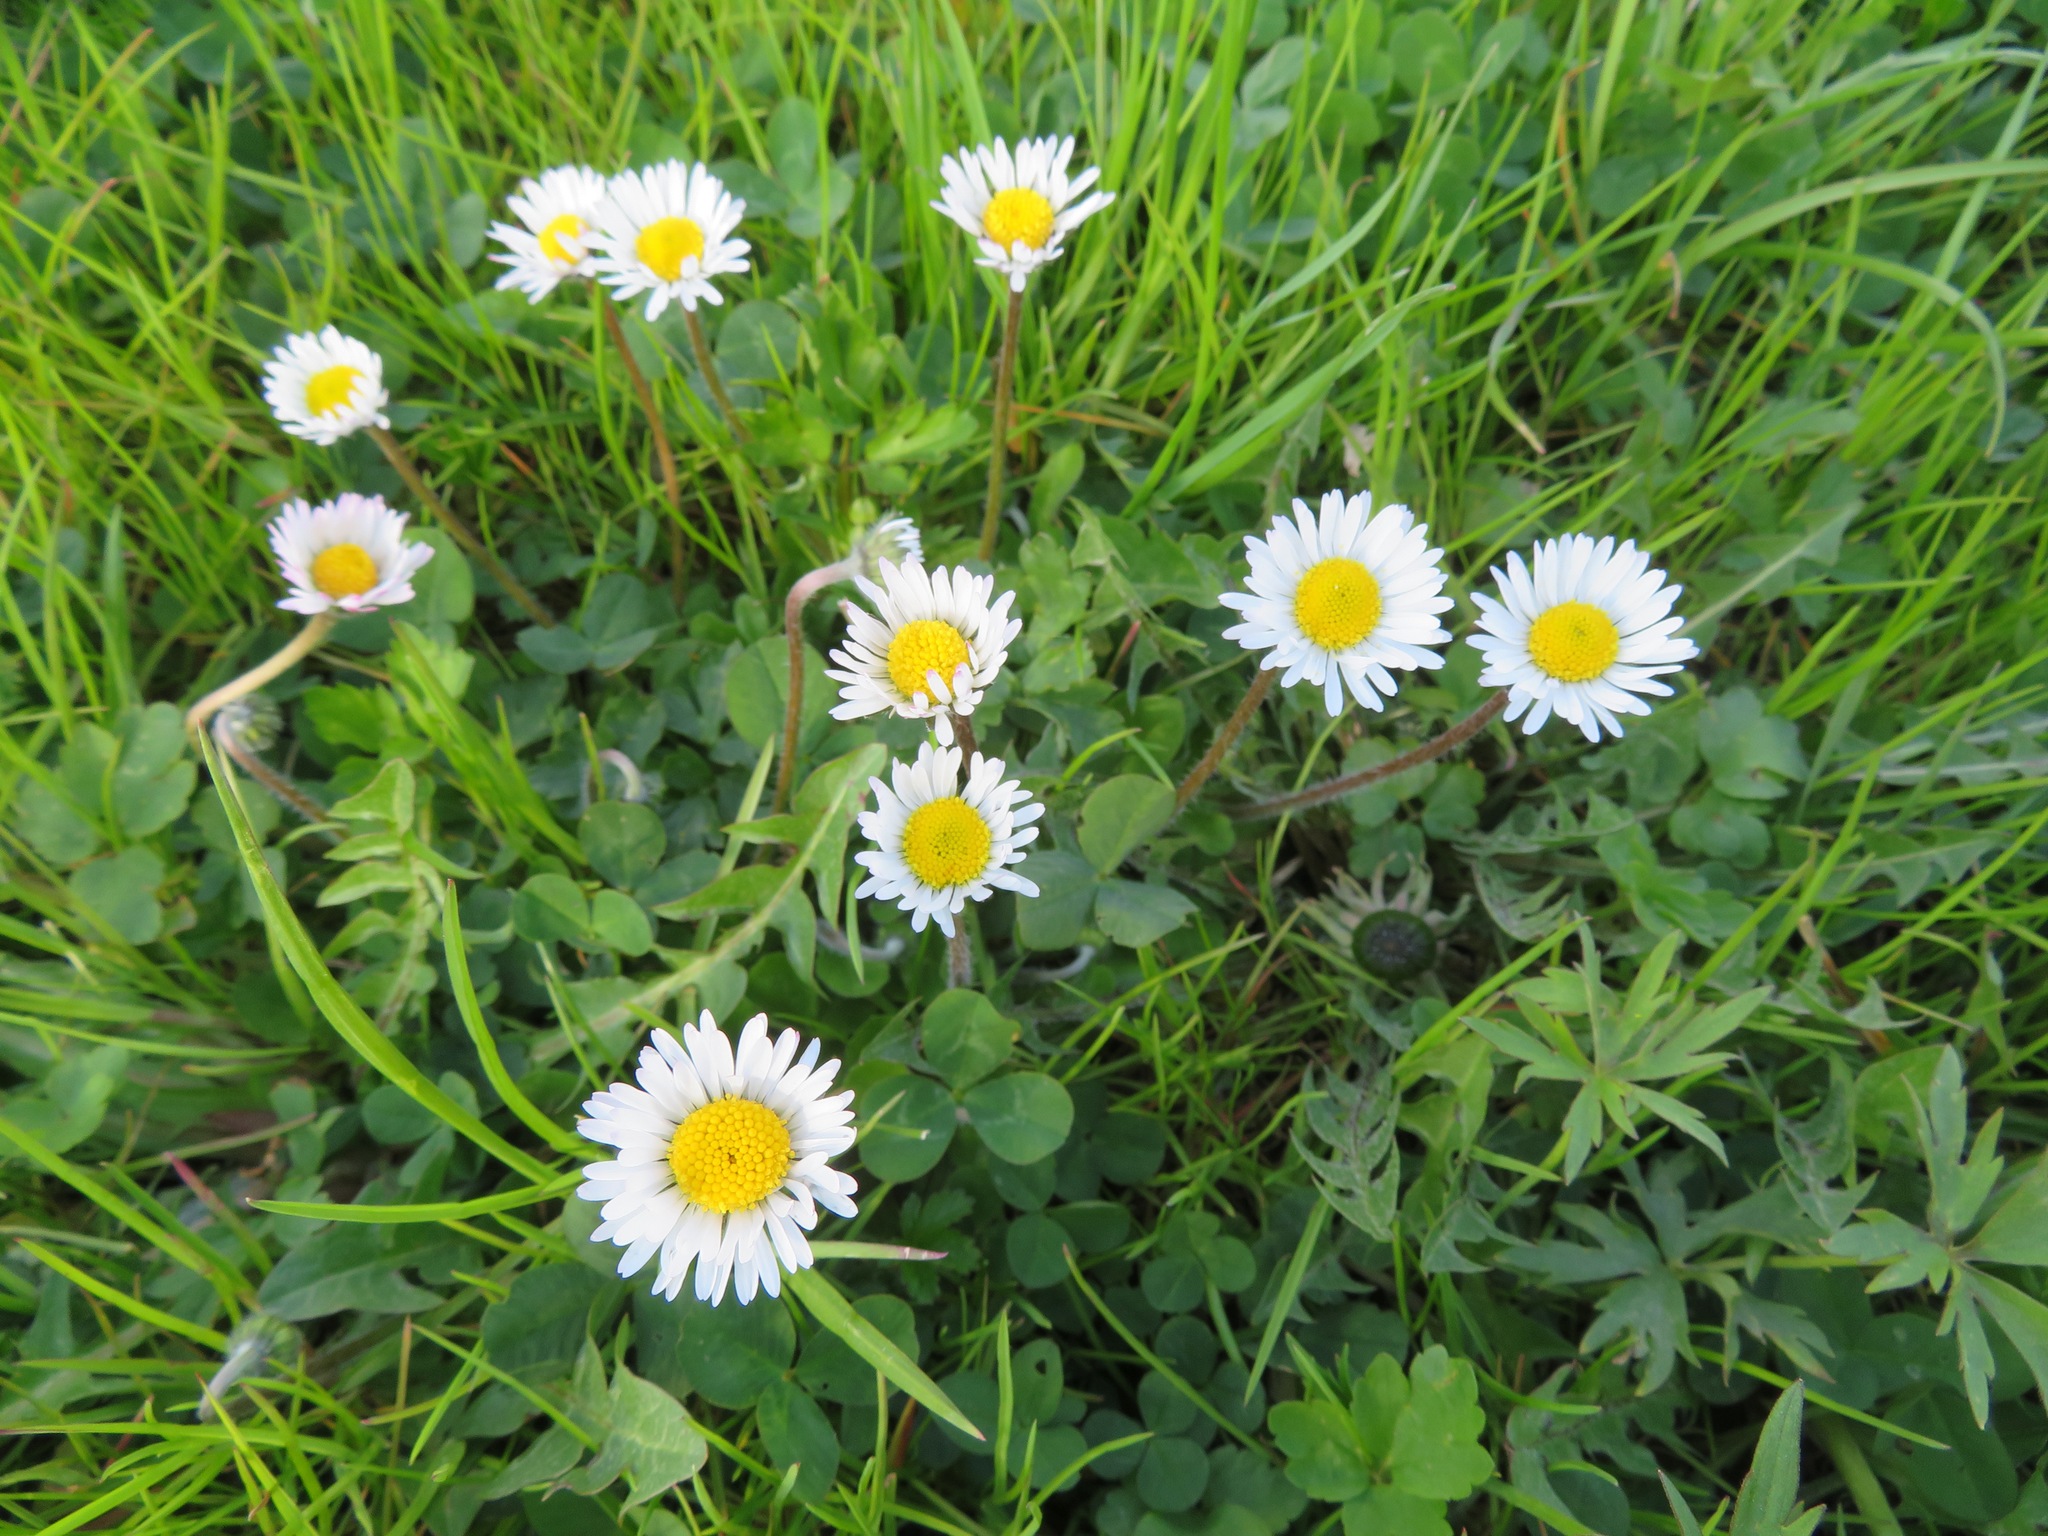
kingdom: Plantae
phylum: Tracheophyta
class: Magnoliopsida
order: Asterales
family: Asteraceae
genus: Bellis
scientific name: Bellis perennis
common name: Lawndaisy
